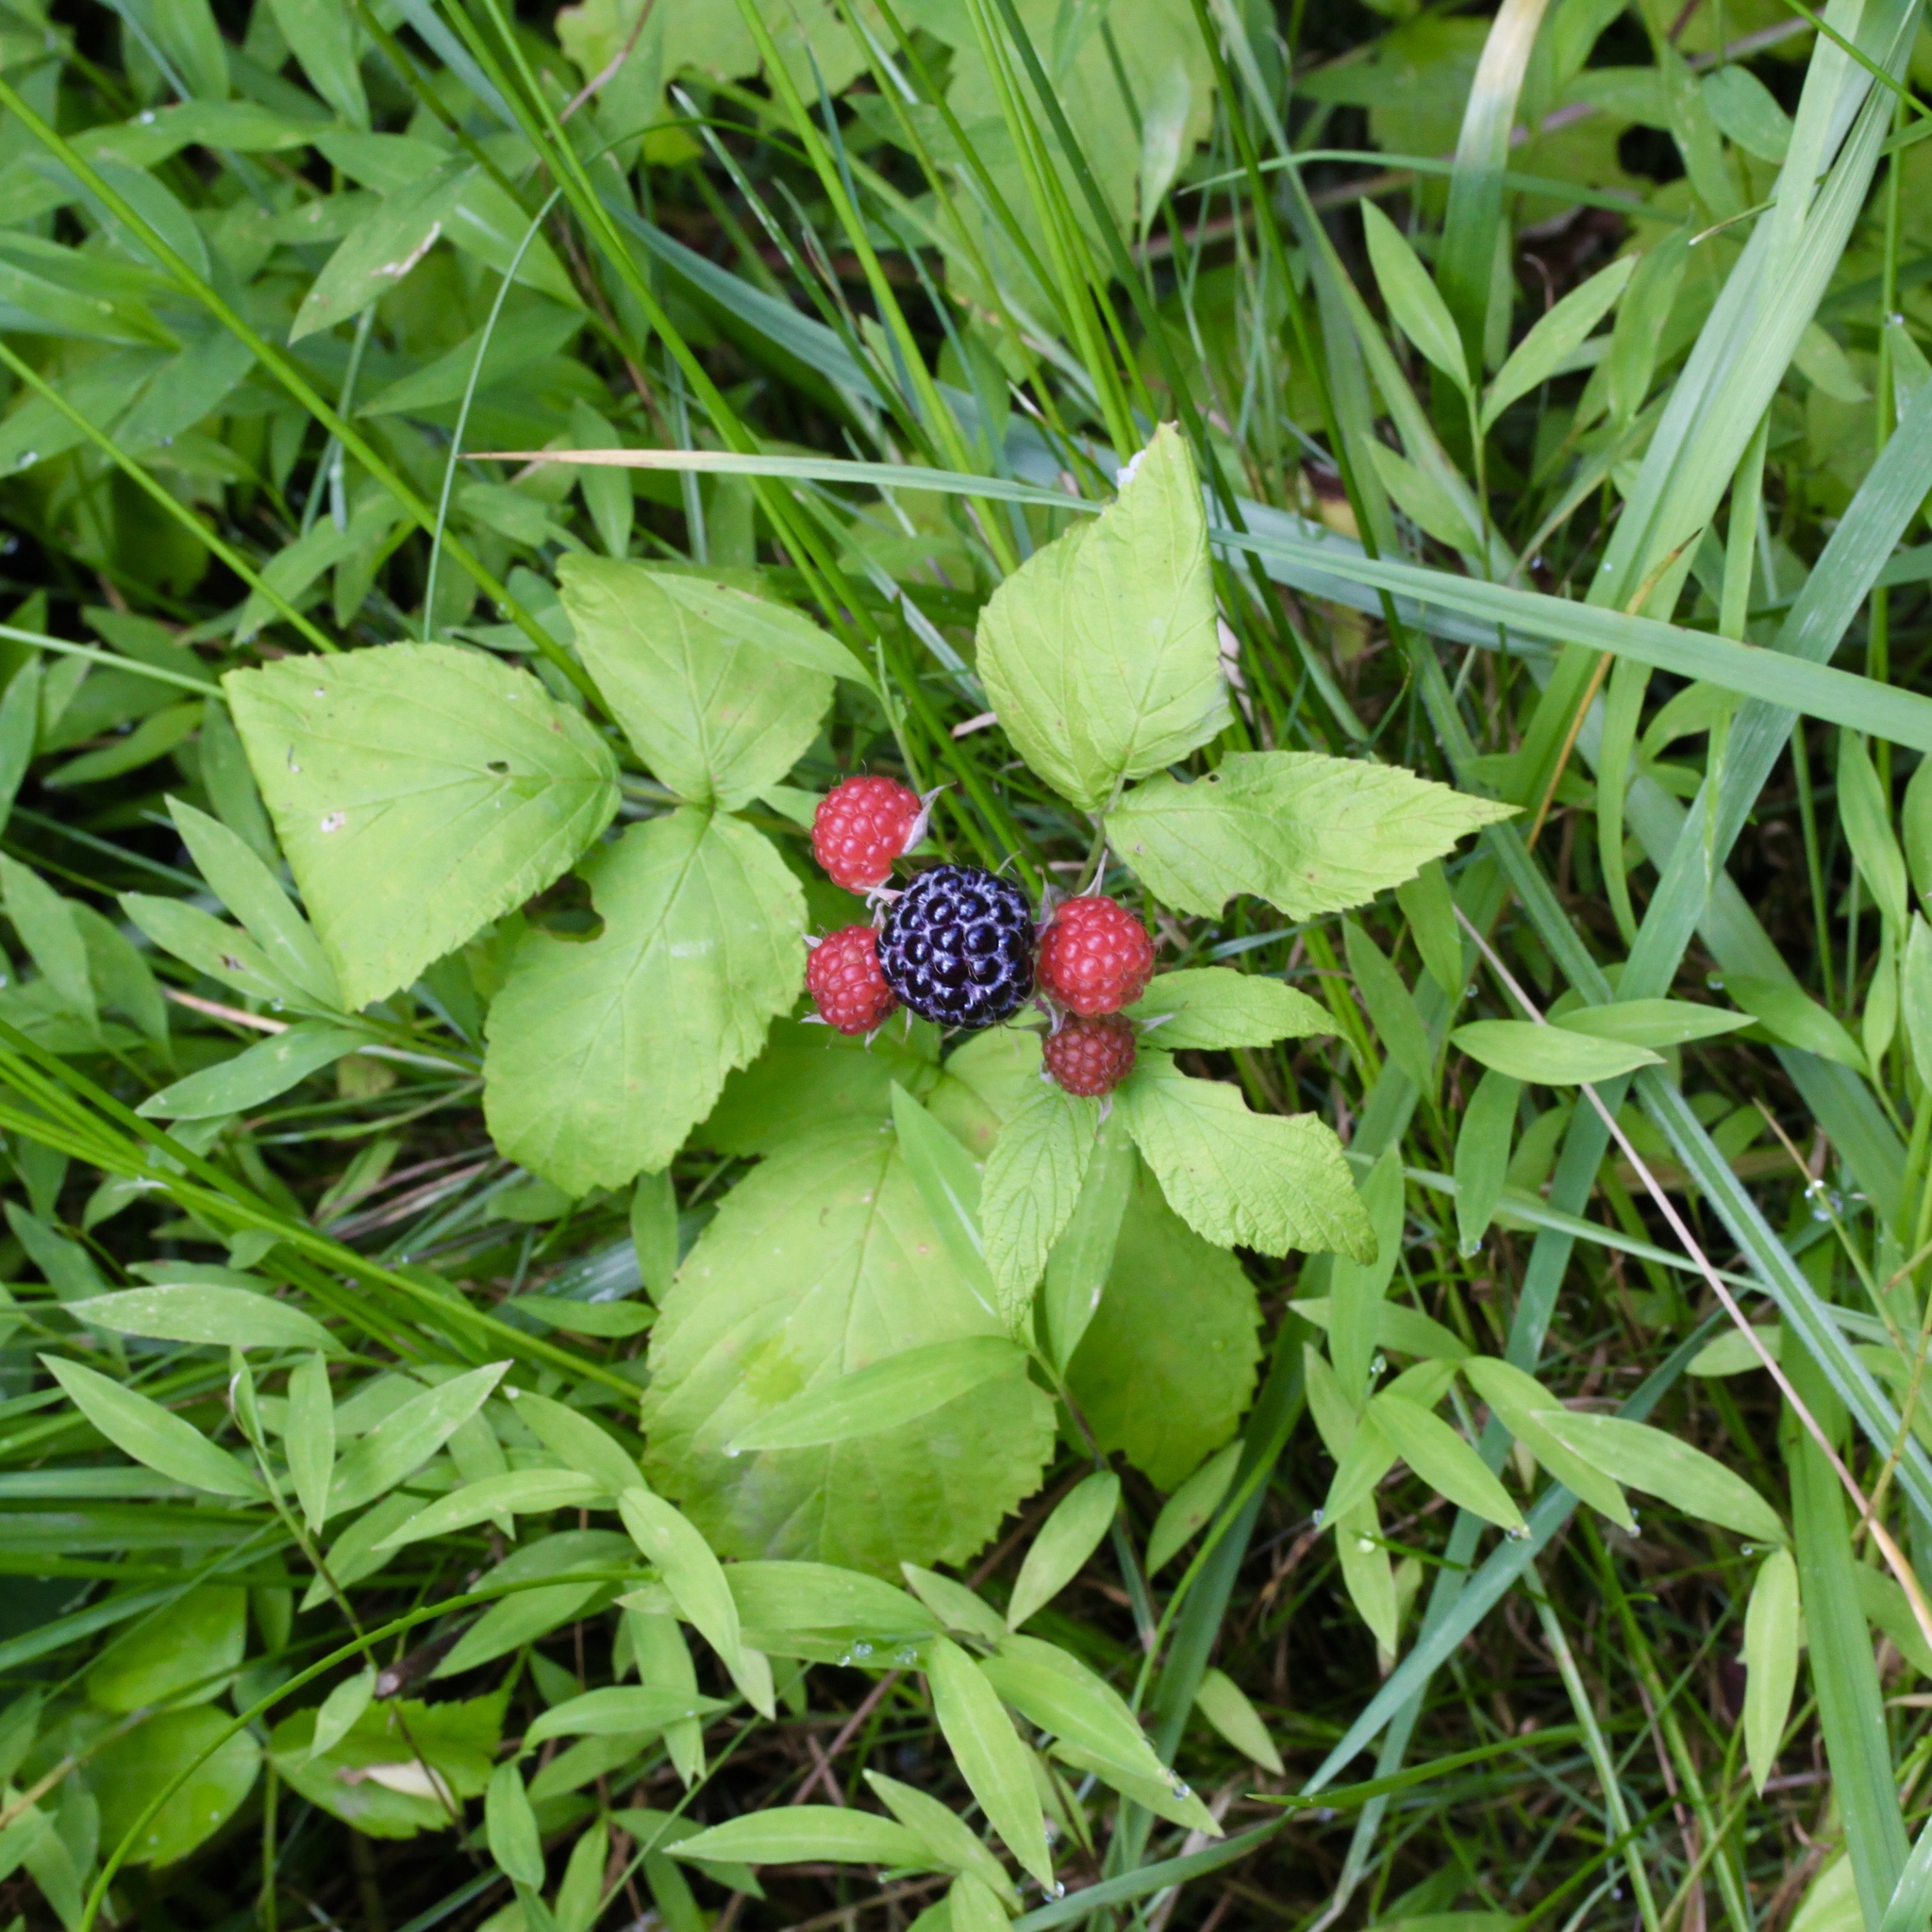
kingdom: Plantae
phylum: Tracheophyta
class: Magnoliopsida
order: Rosales
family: Rosaceae
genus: Rubus
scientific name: Rubus occidentalis
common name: Black raspberry
